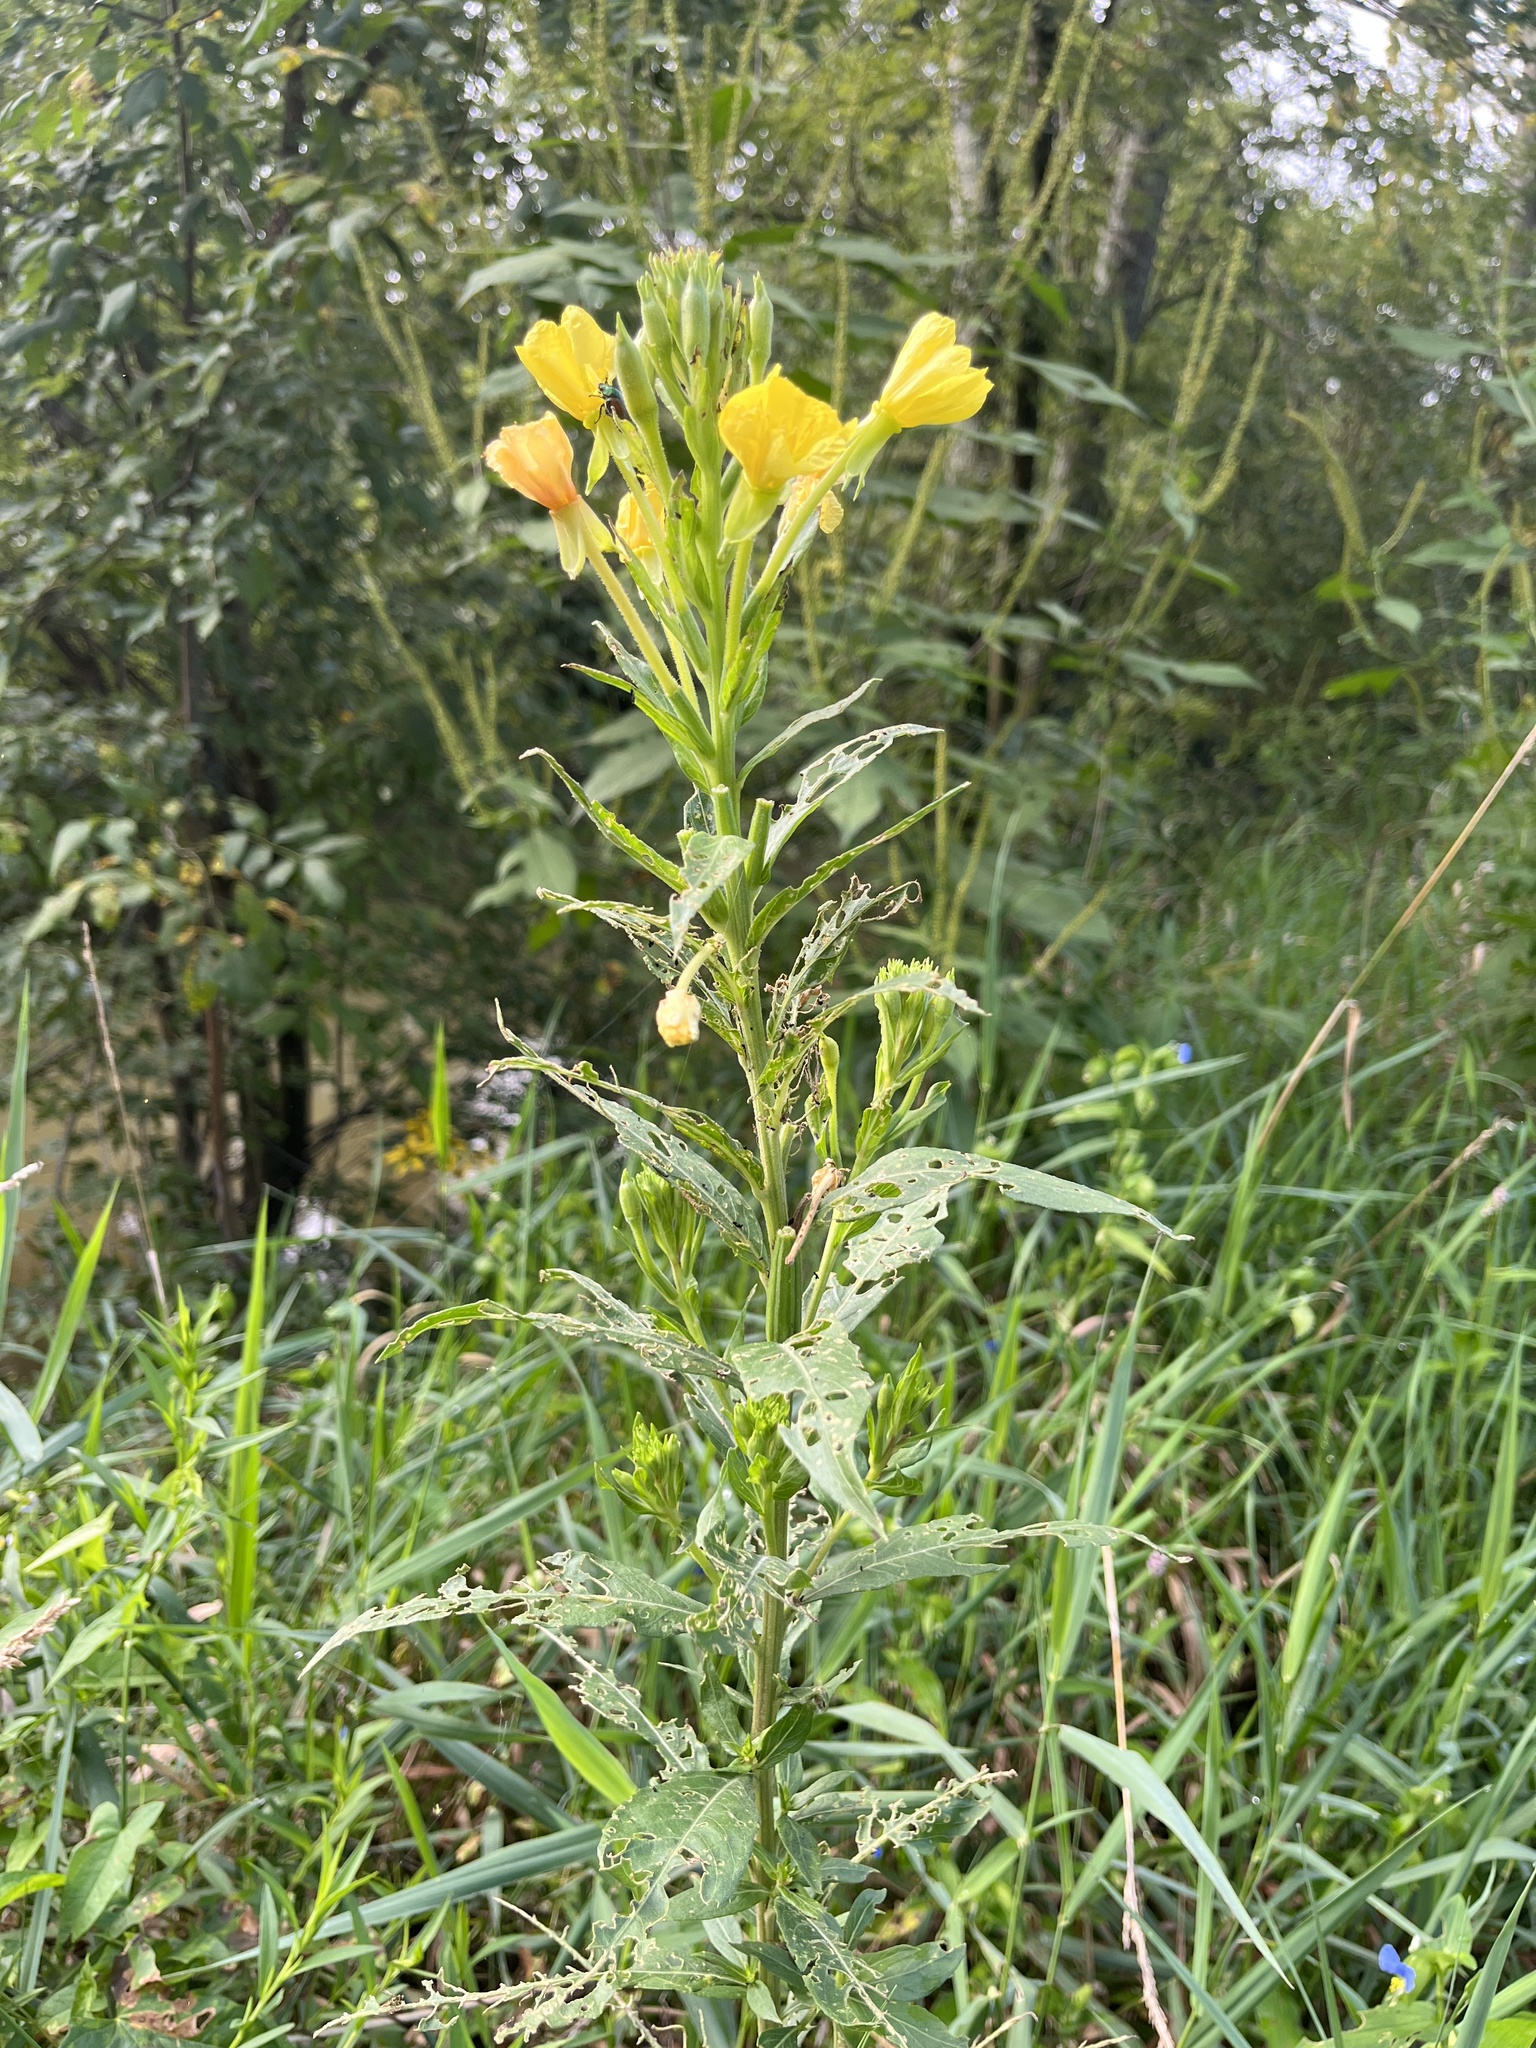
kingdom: Plantae
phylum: Tracheophyta
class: Magnoliopsida
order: Myrtales
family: Onagraceae
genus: Oenothera
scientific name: Oenothera biennis
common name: Common evening-primrose
